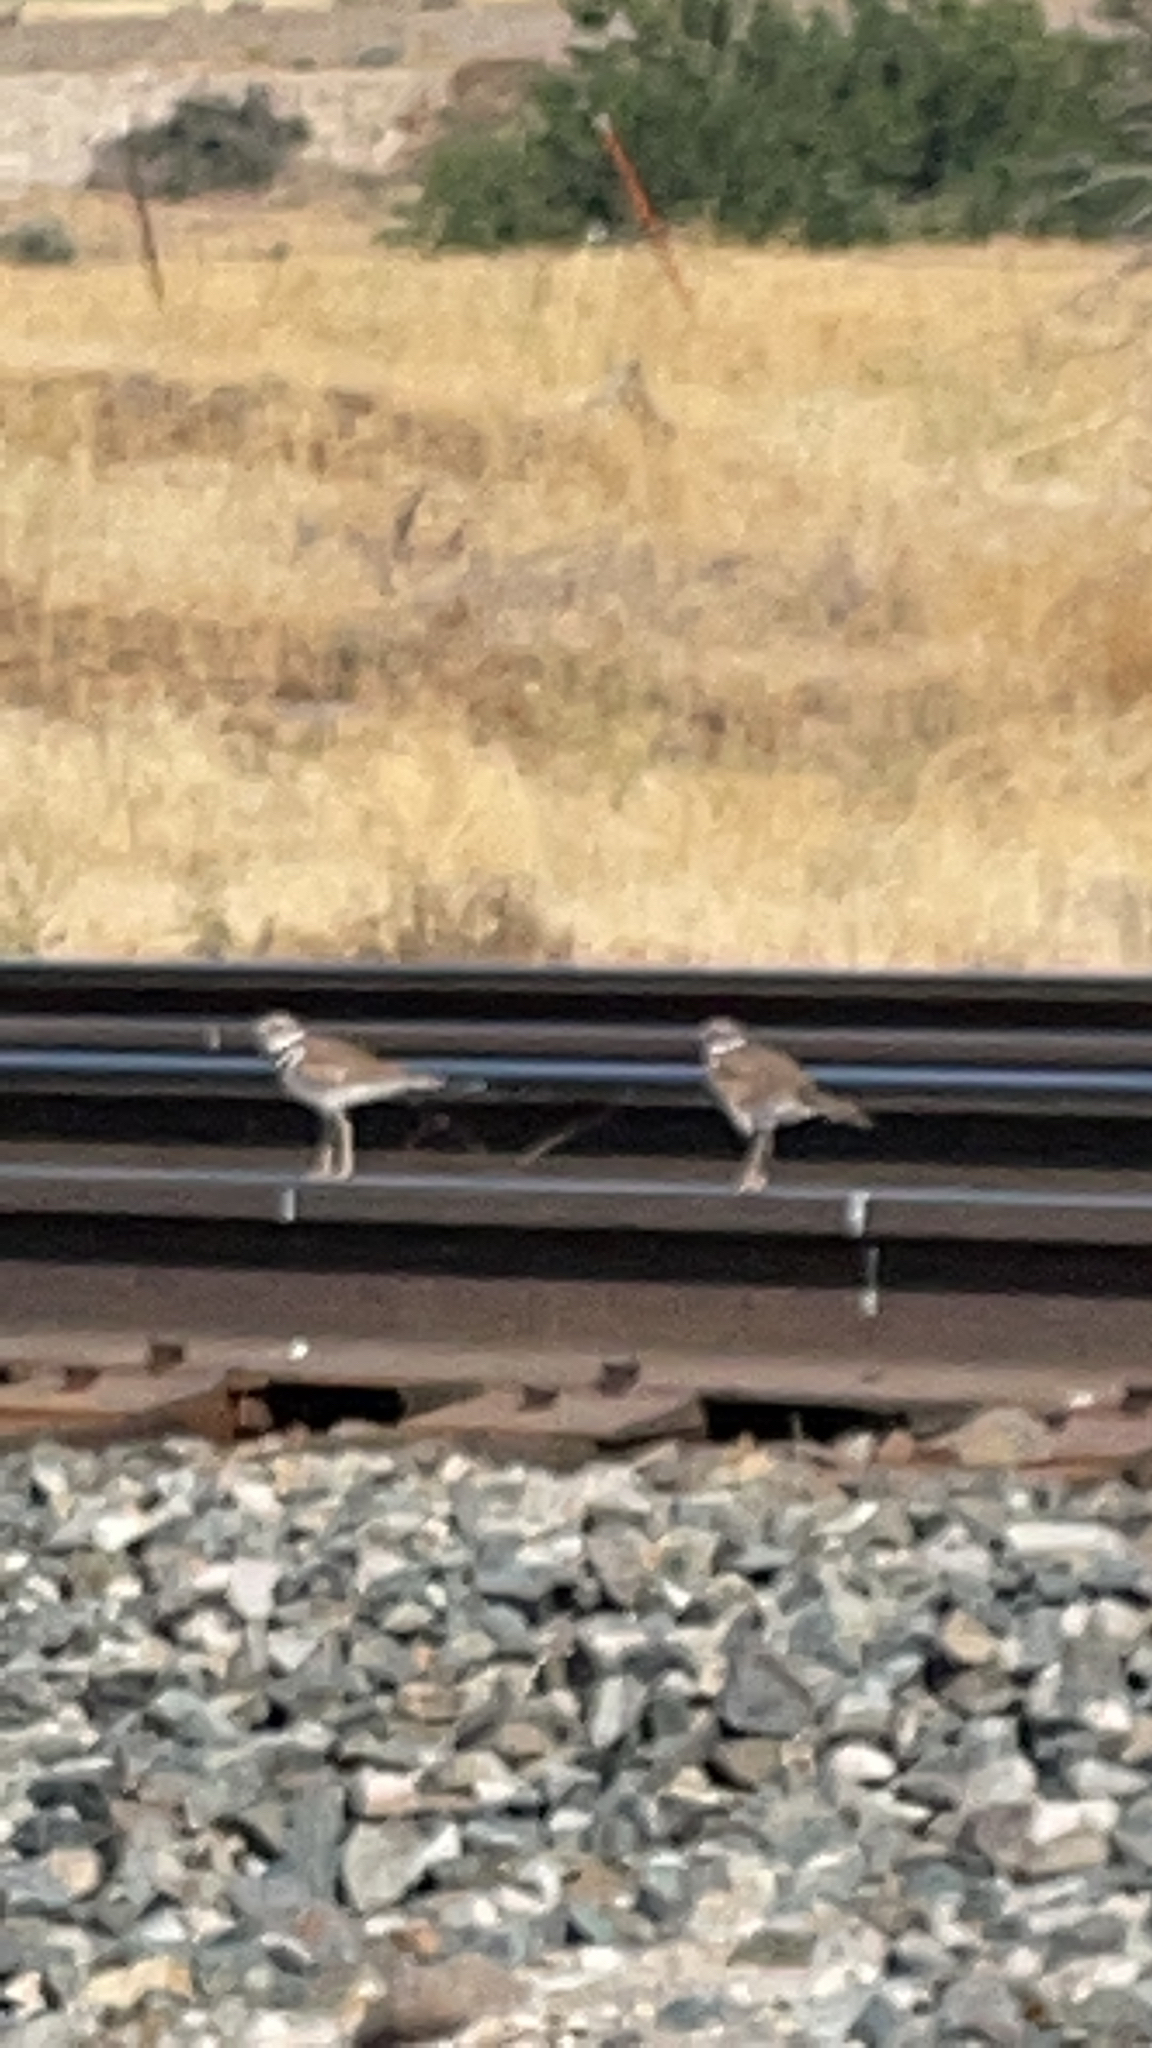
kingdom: Animalia
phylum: Chordata
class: Aves
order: Charadriiformes
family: Charadriidae
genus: Charadrius
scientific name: Charadrius vociferus
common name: Killdeer
